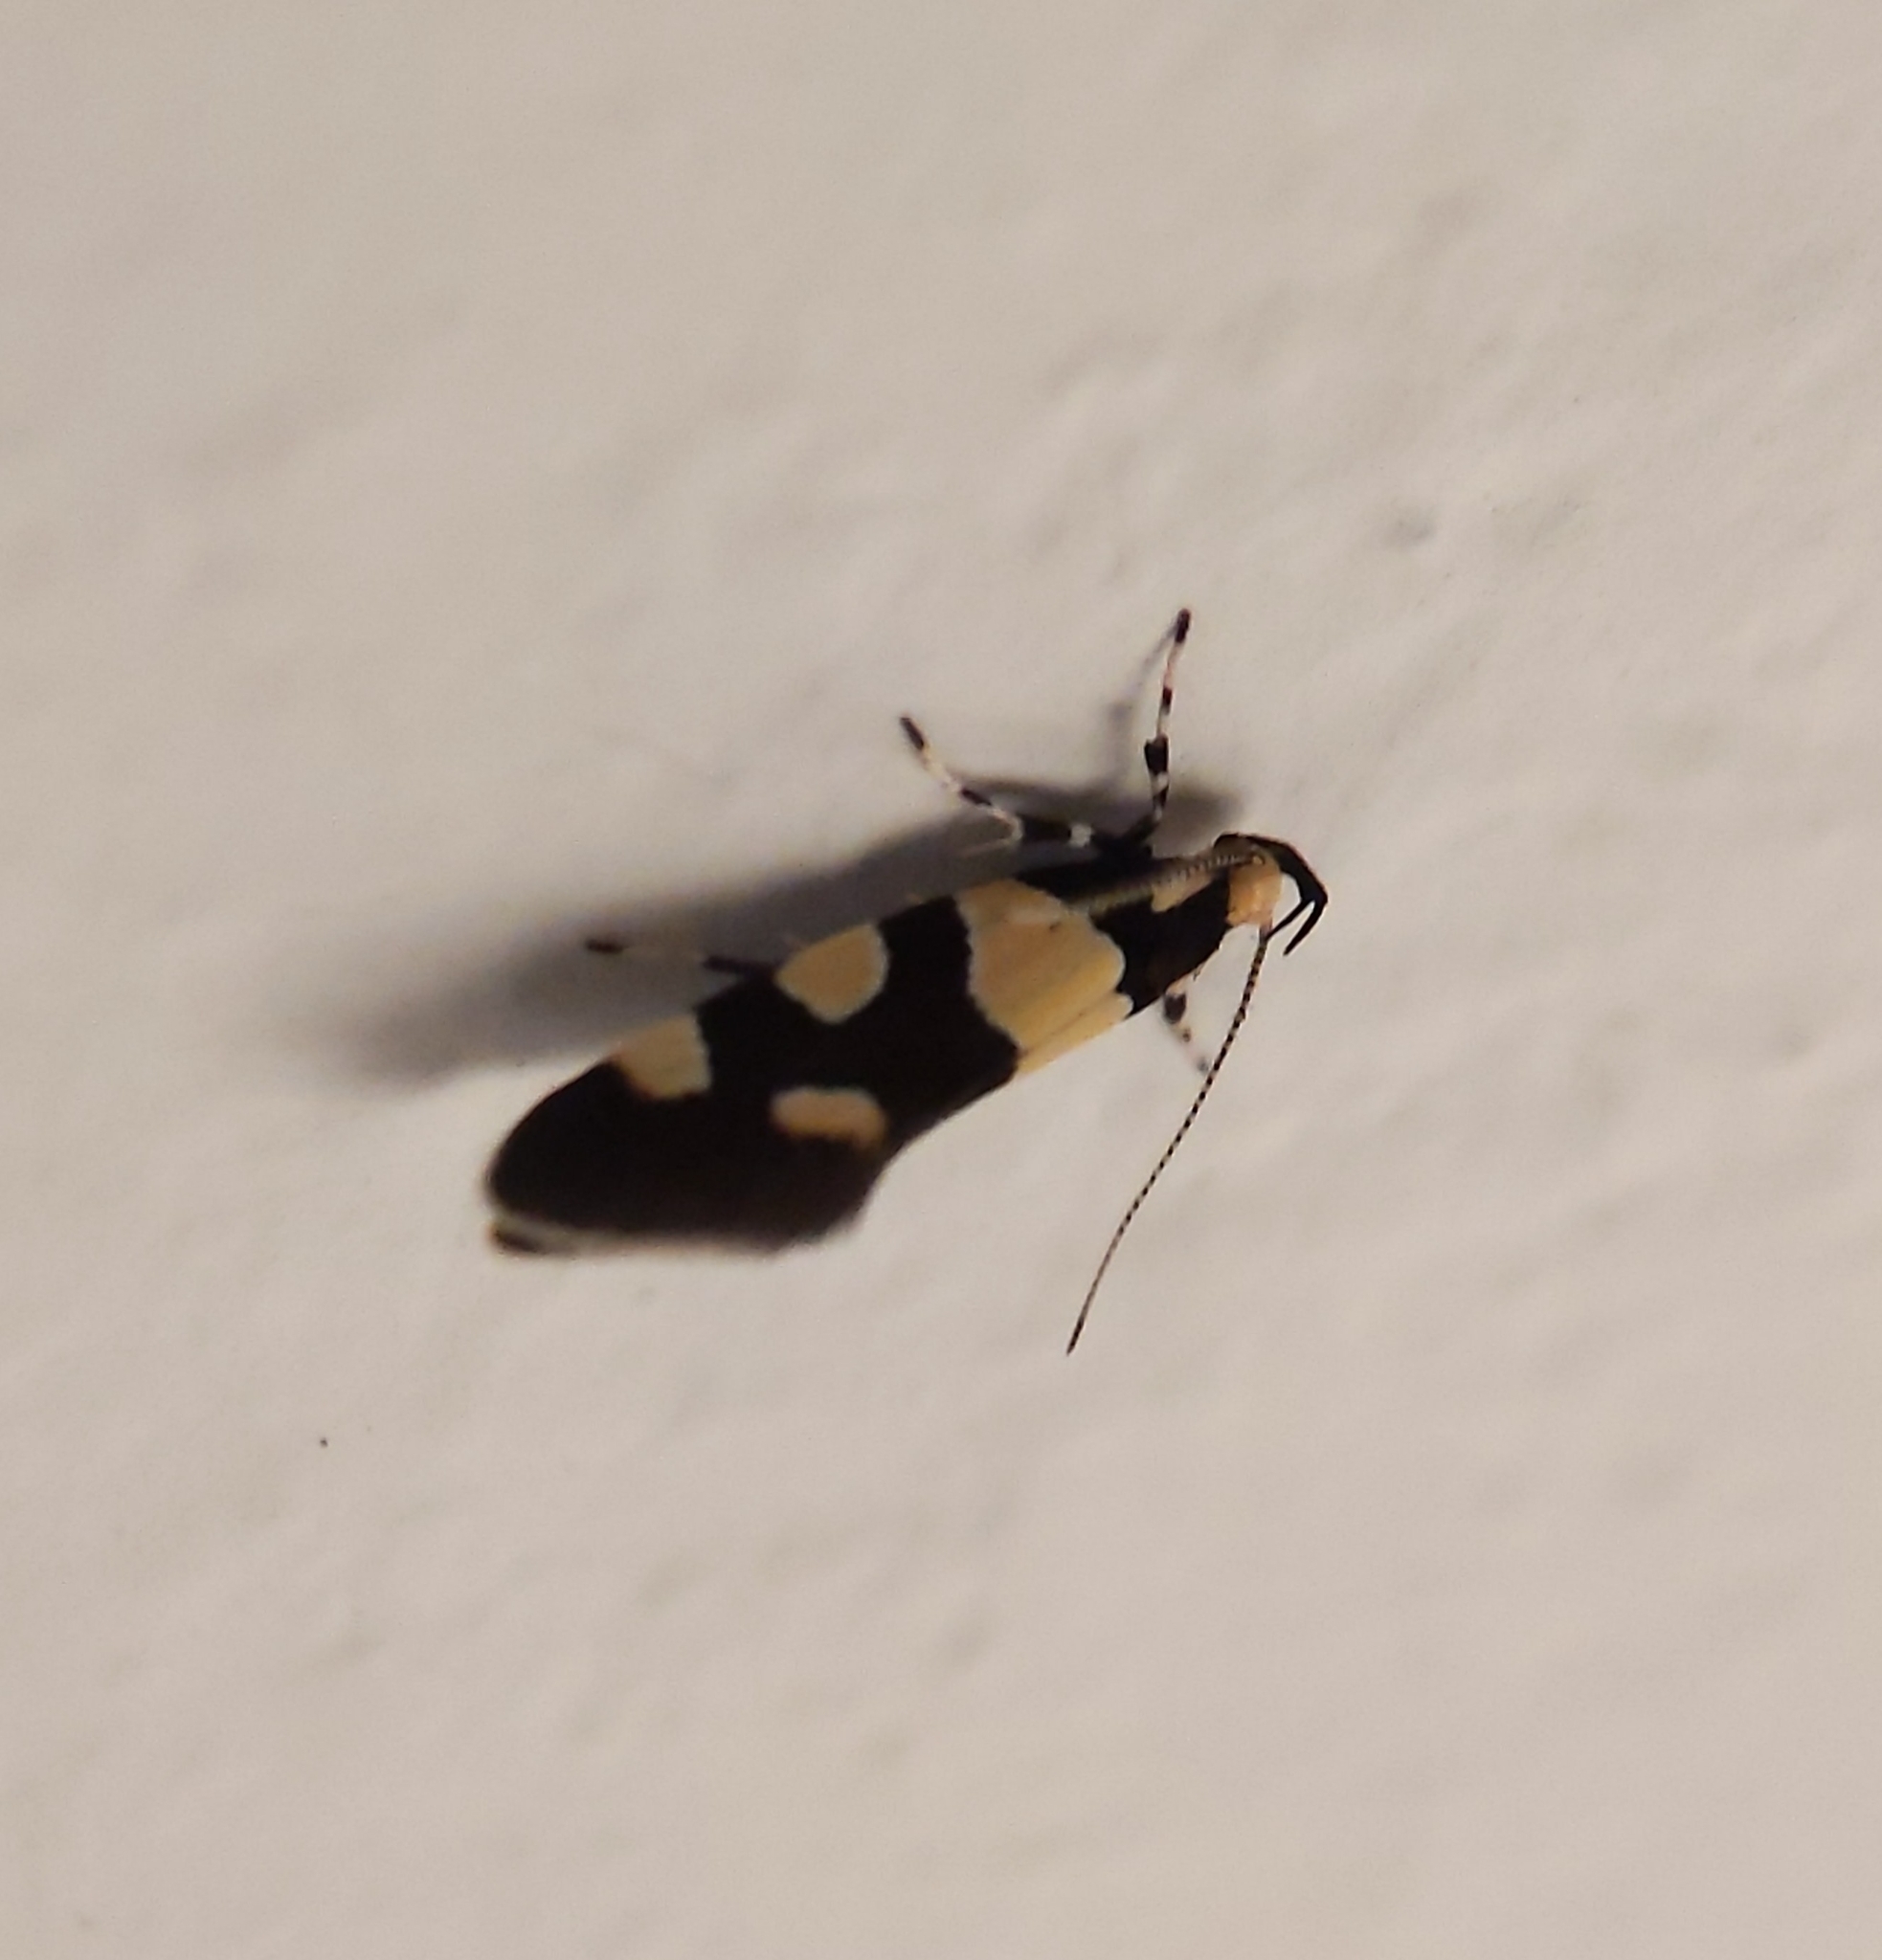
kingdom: Animalia
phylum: Arthropoda
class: Insecta
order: Lepidoptera
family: Oecophoridae
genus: Schiffermuelleria
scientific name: Schiffermuelleria amasiella
